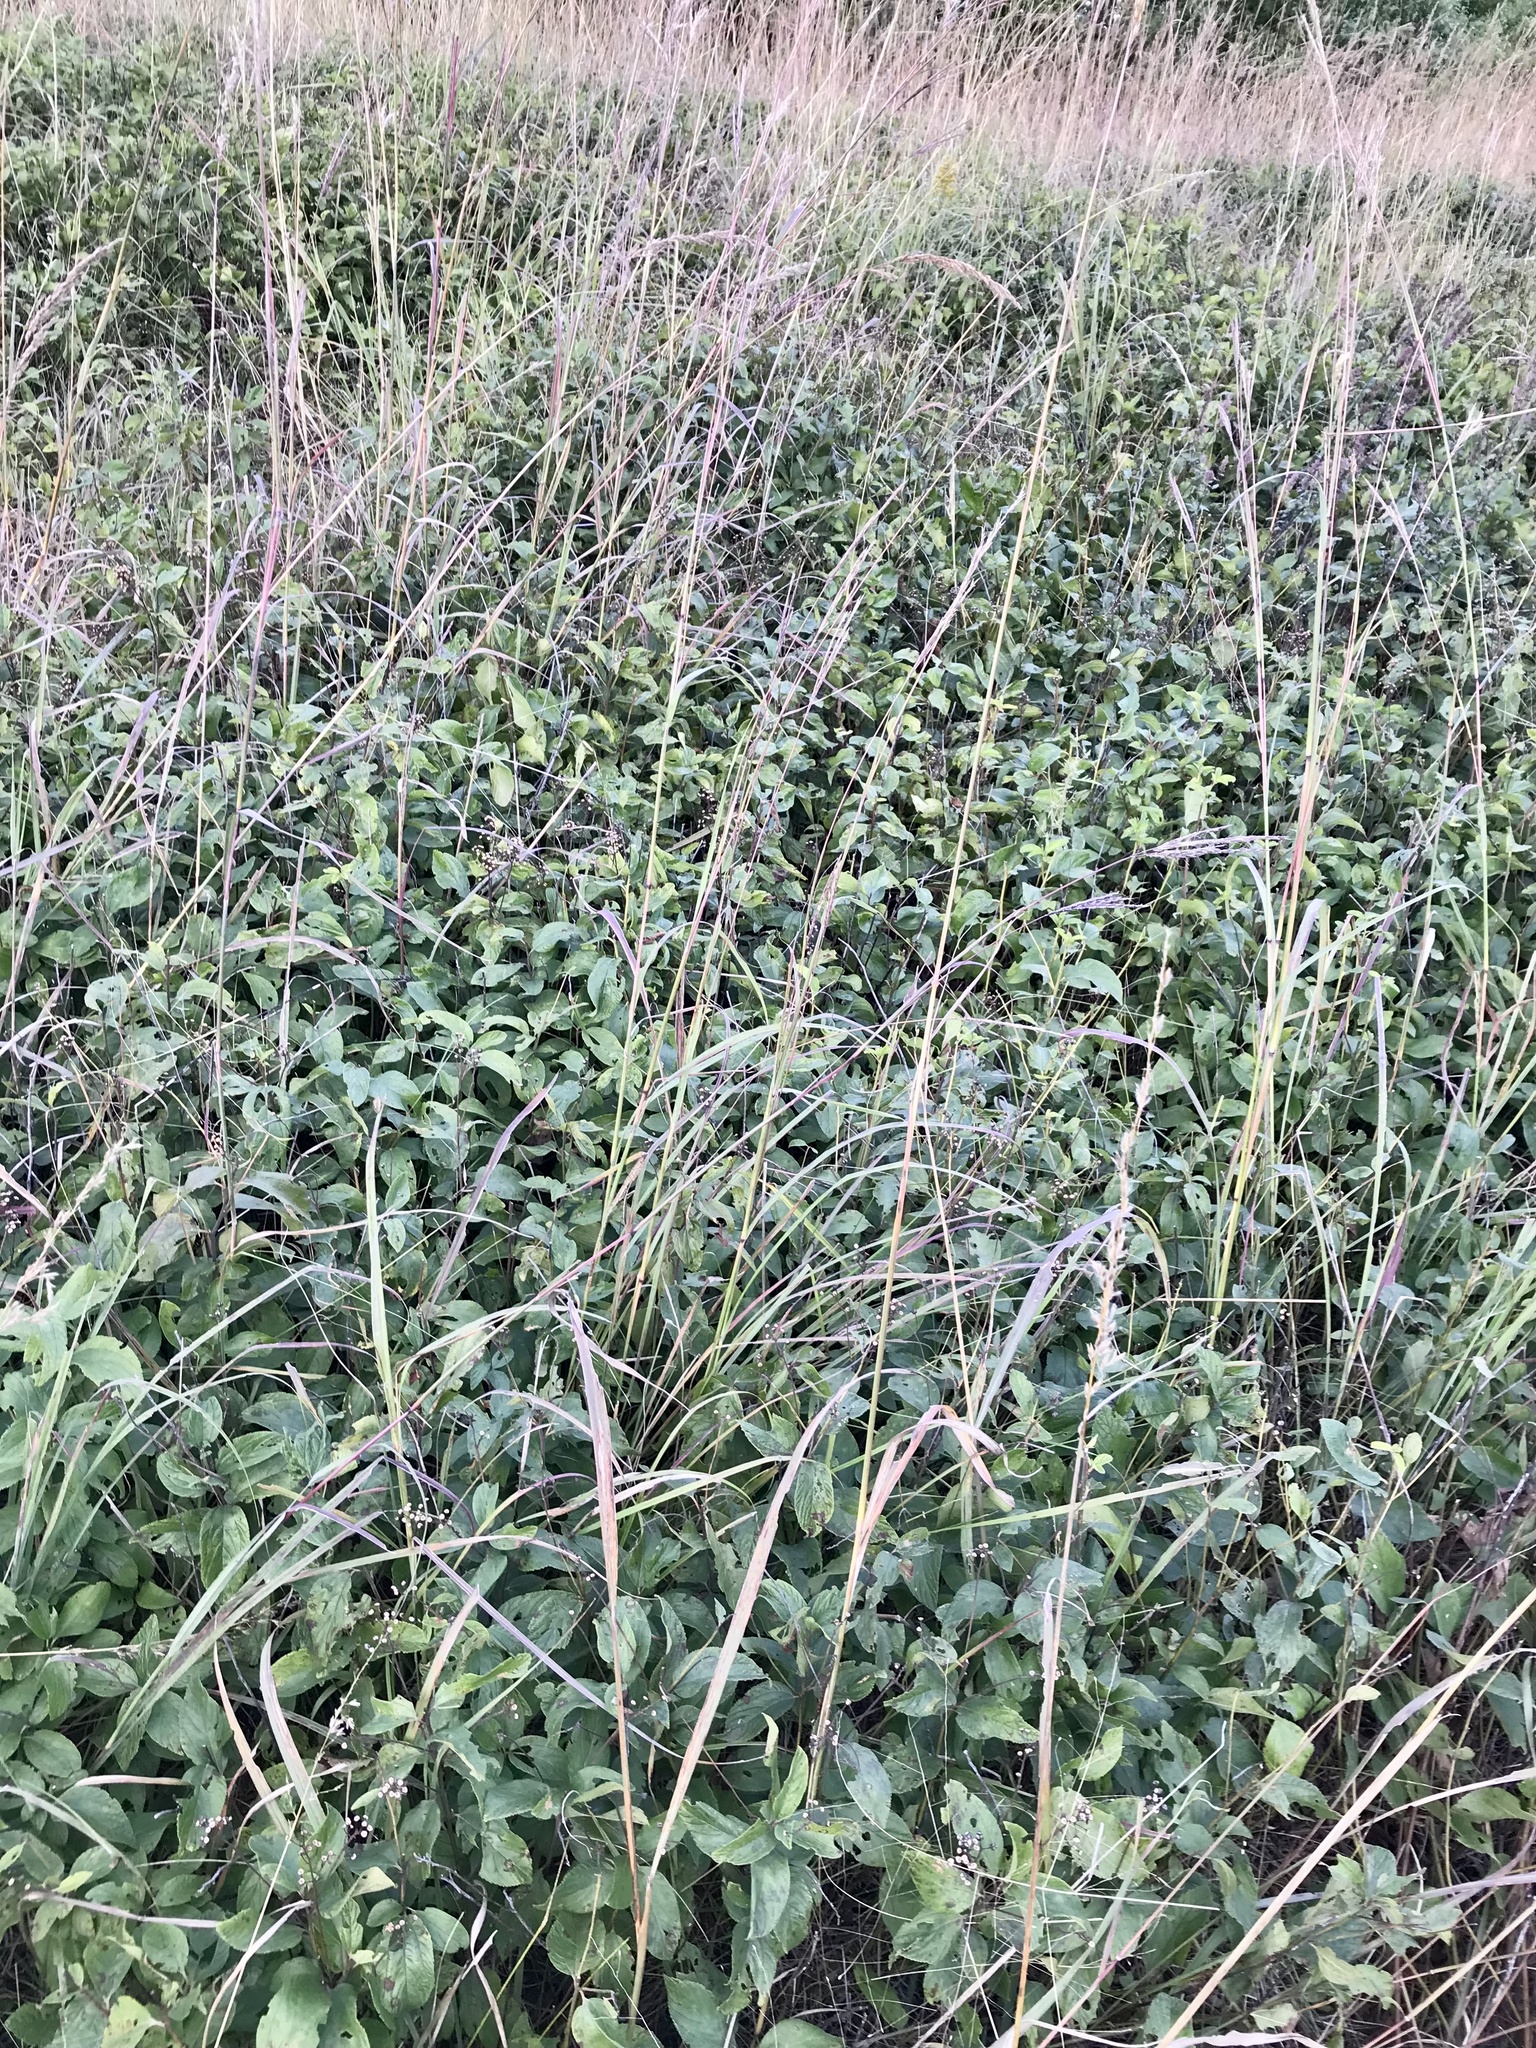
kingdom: Plantae
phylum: Tracheophyta
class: Magnoliopsida
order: Rosales
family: Rhamnaceae
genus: Ceanothus
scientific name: Ceanothus americanus
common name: Redroot
